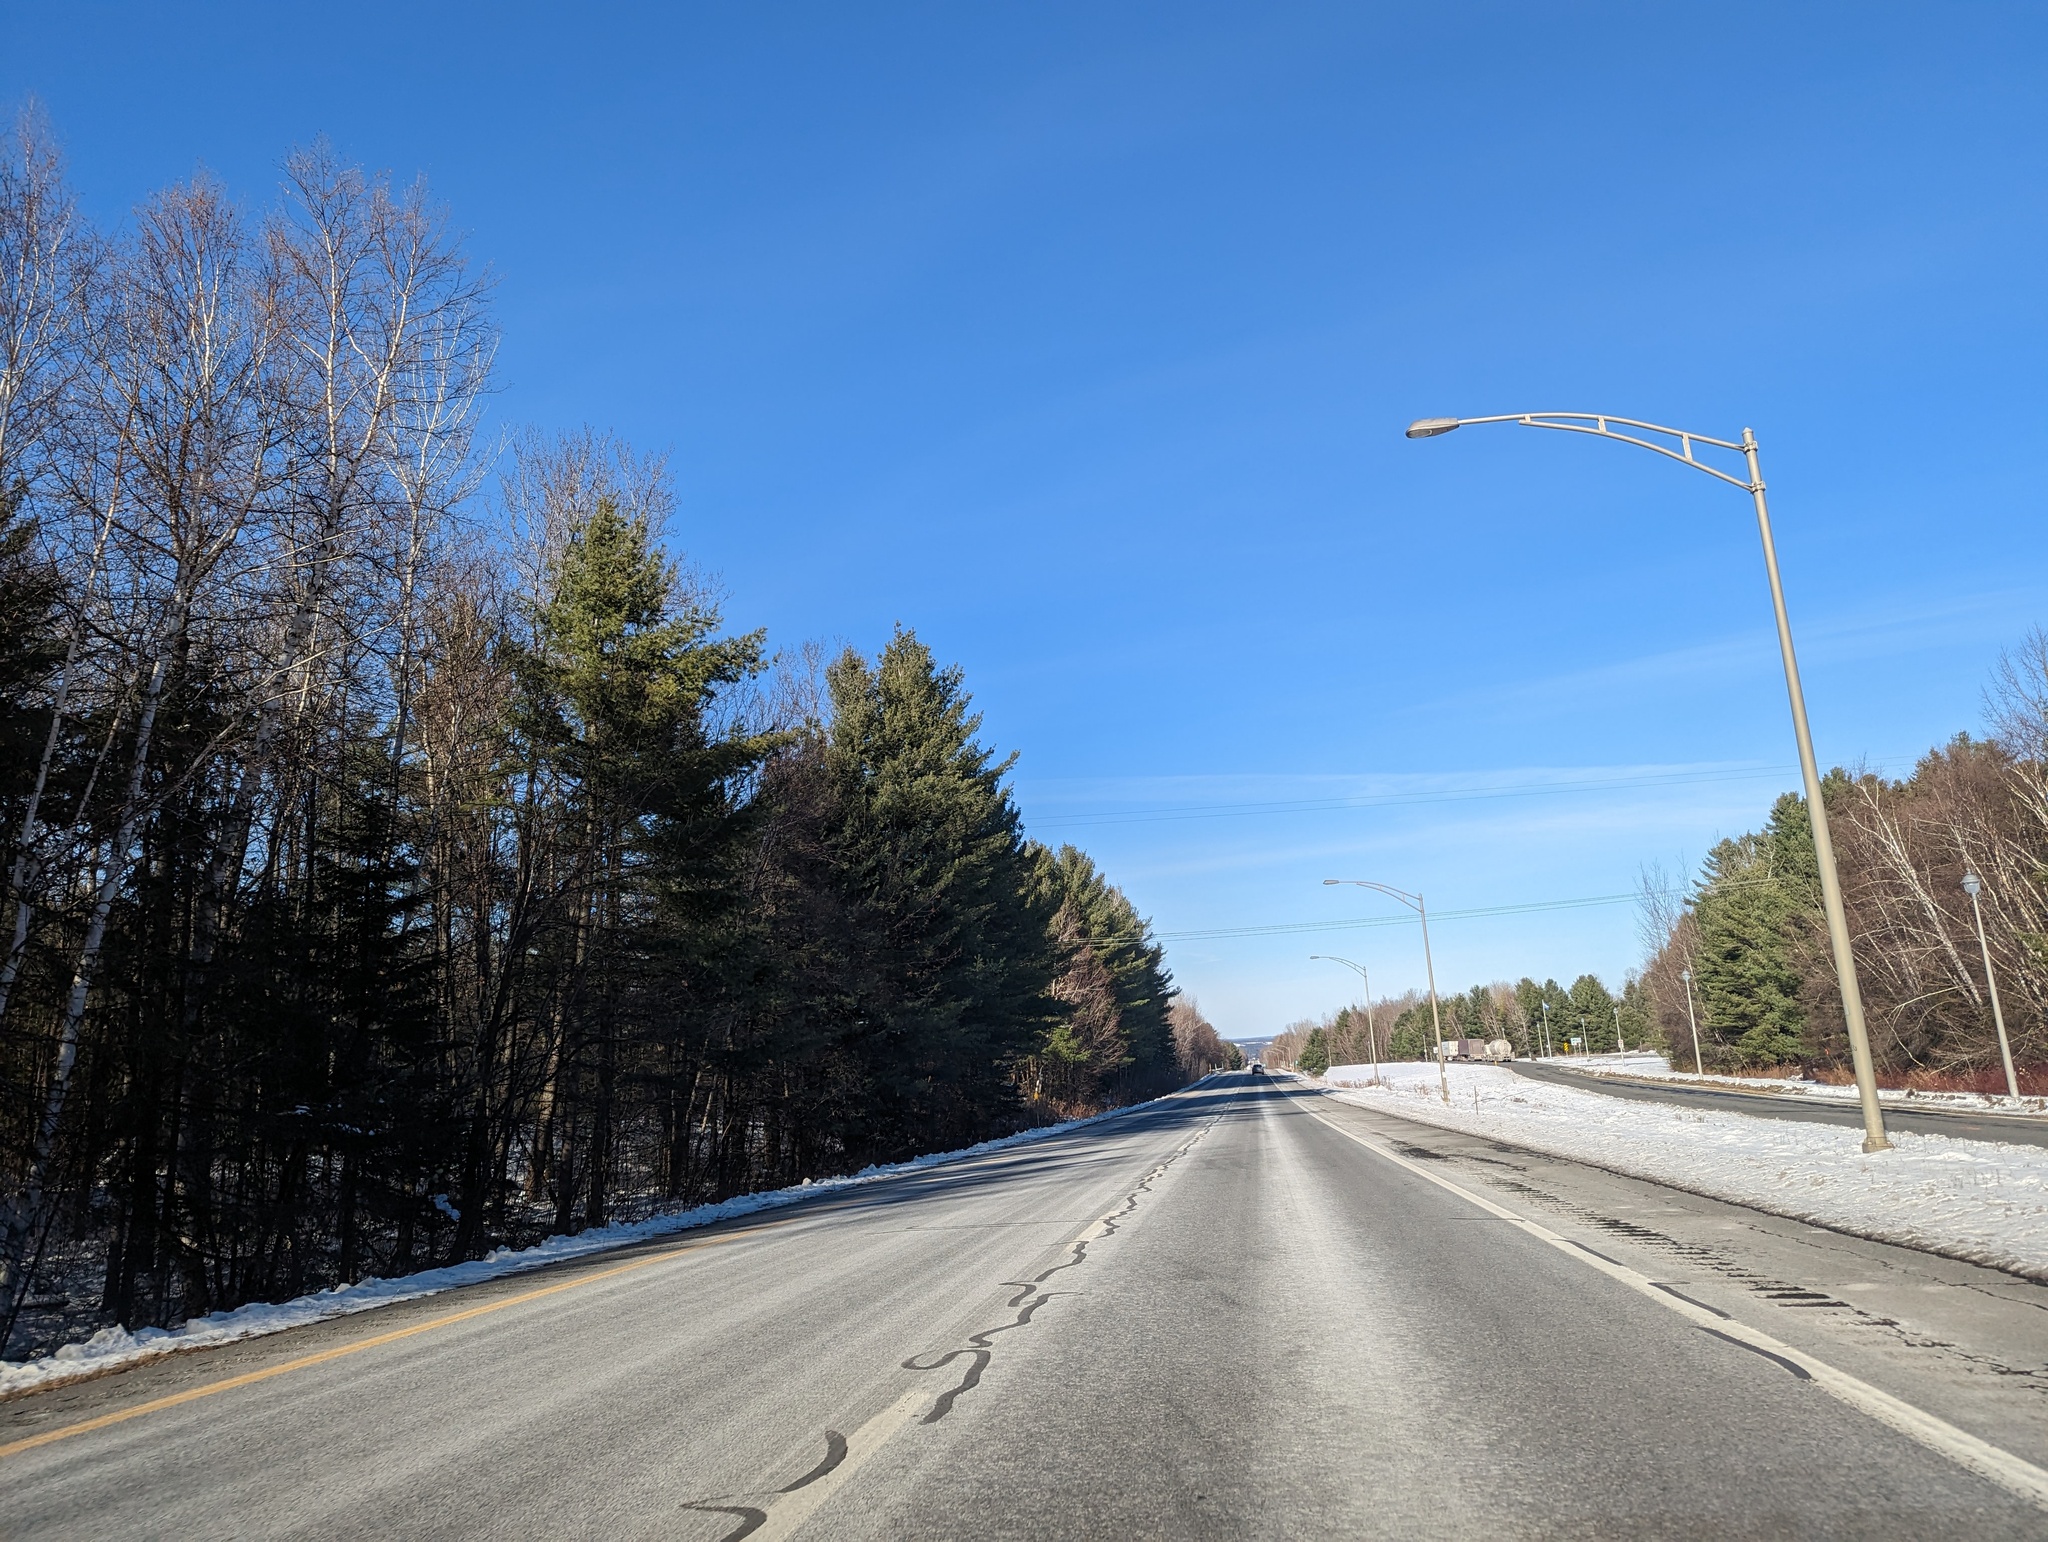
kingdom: Plantae
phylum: Tracheophyta
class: Pinopsida
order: Pinales
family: Pinaceae
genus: Pinus
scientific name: Pinus strobus
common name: Weymouth pine
